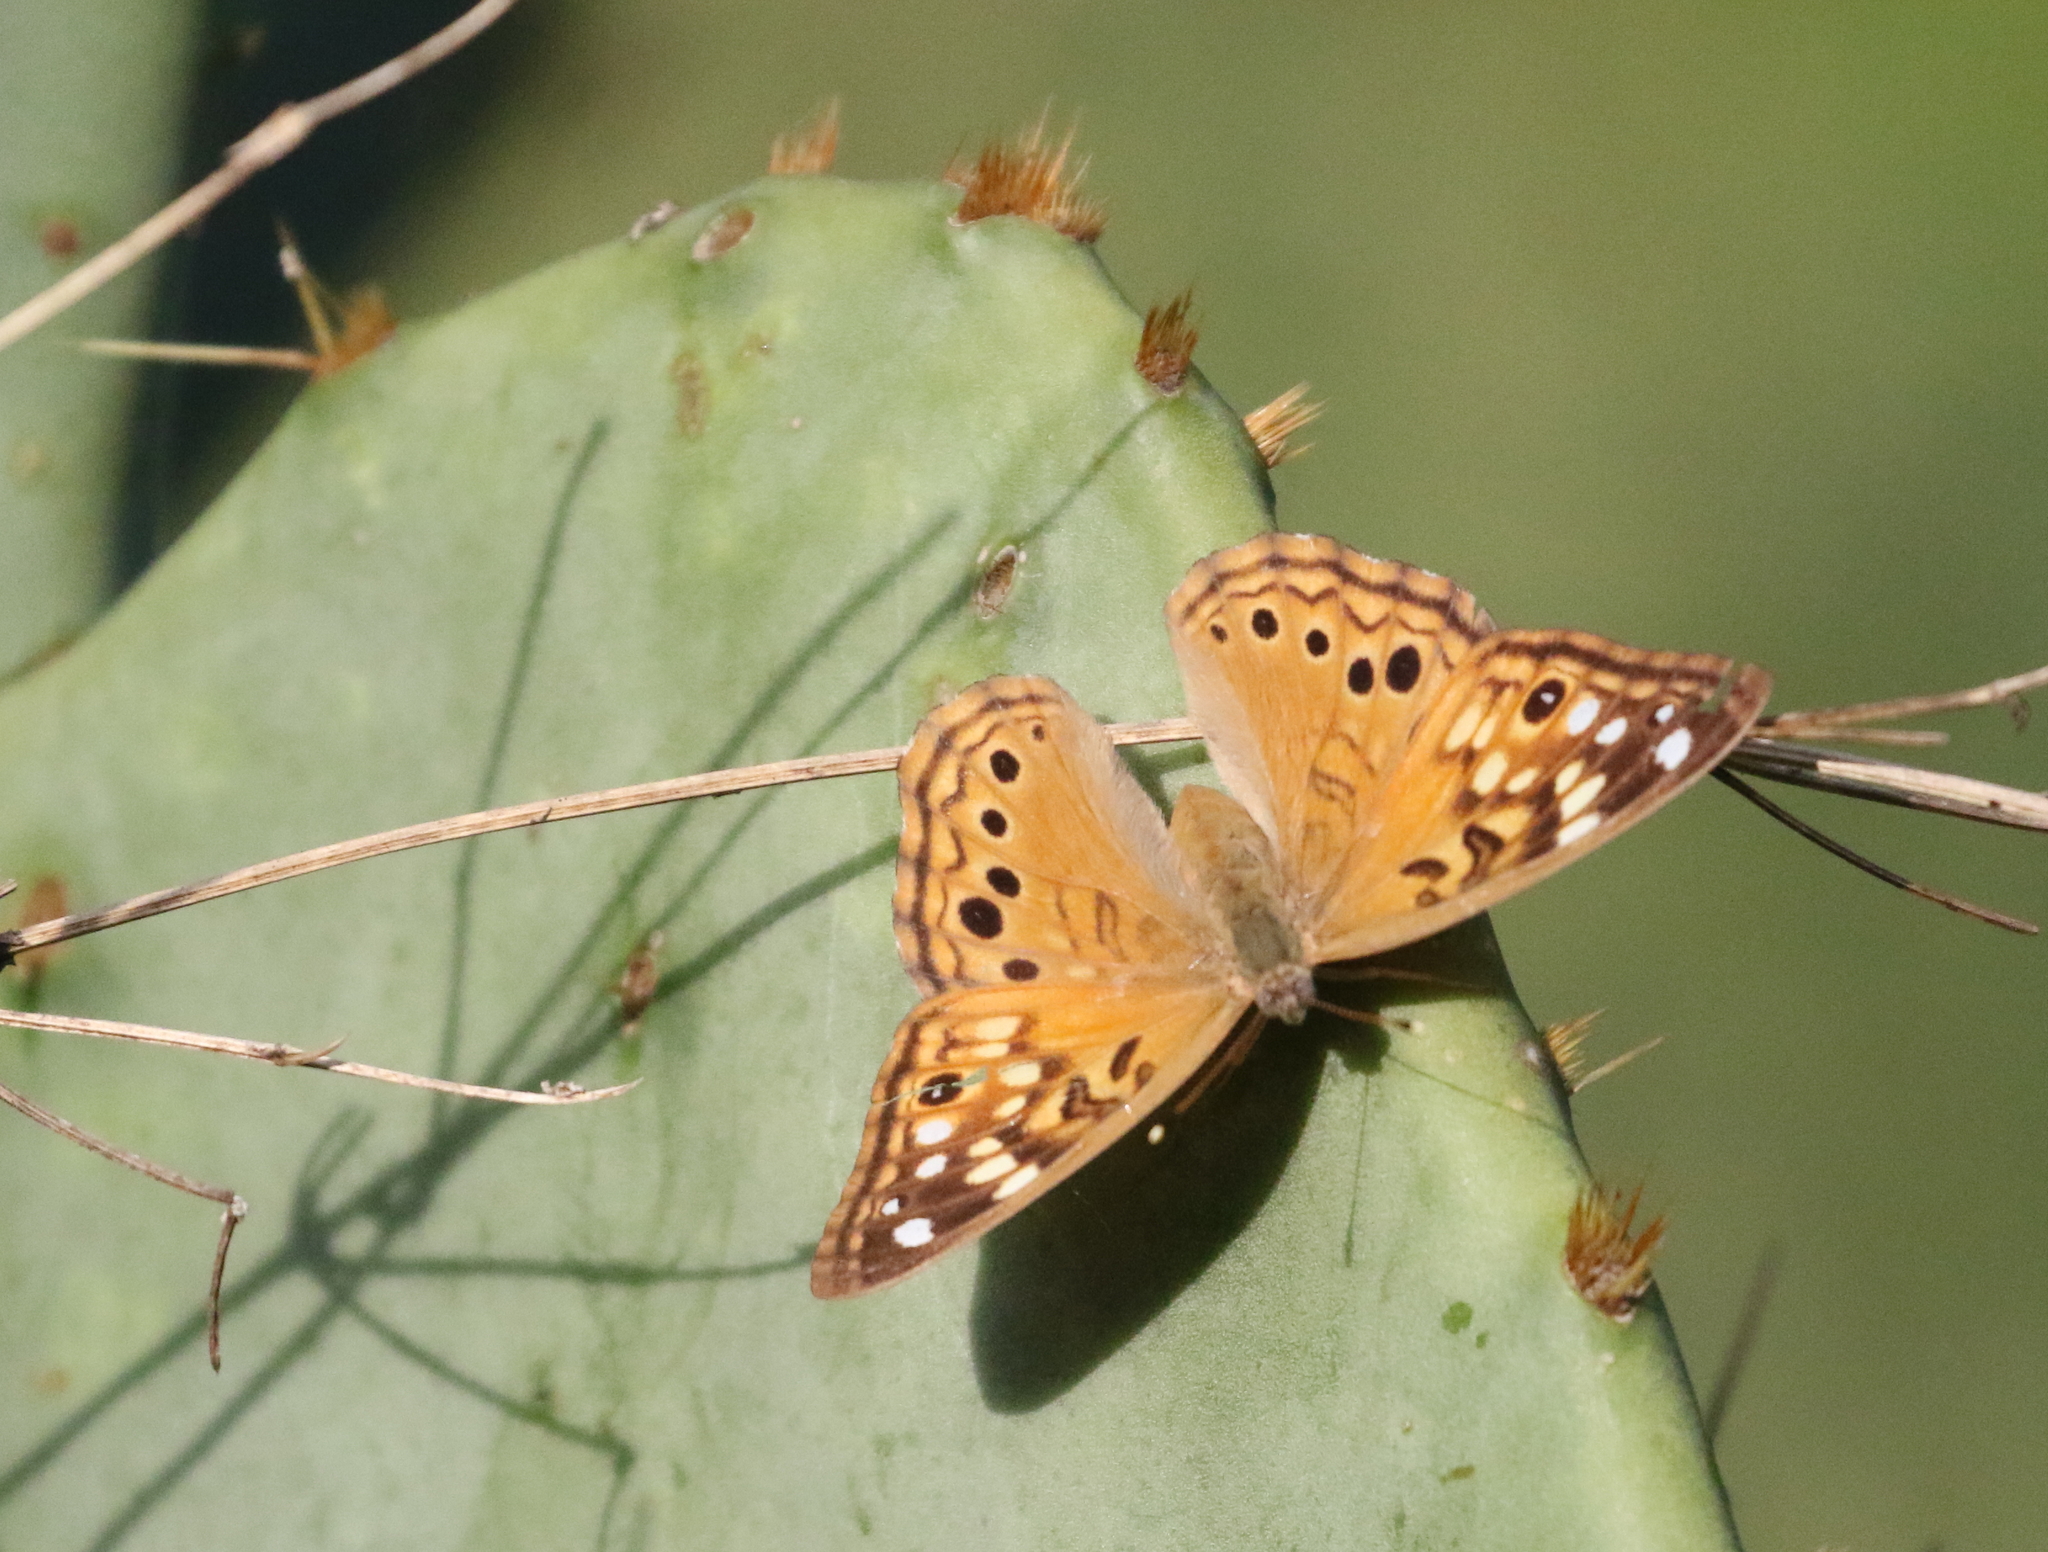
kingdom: Animalia
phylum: Arthropoda
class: Insecta
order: Lepidoptera
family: Nymphalidae
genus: Asterocampa
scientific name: Asterocampa celtis
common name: Hackberry emperor
